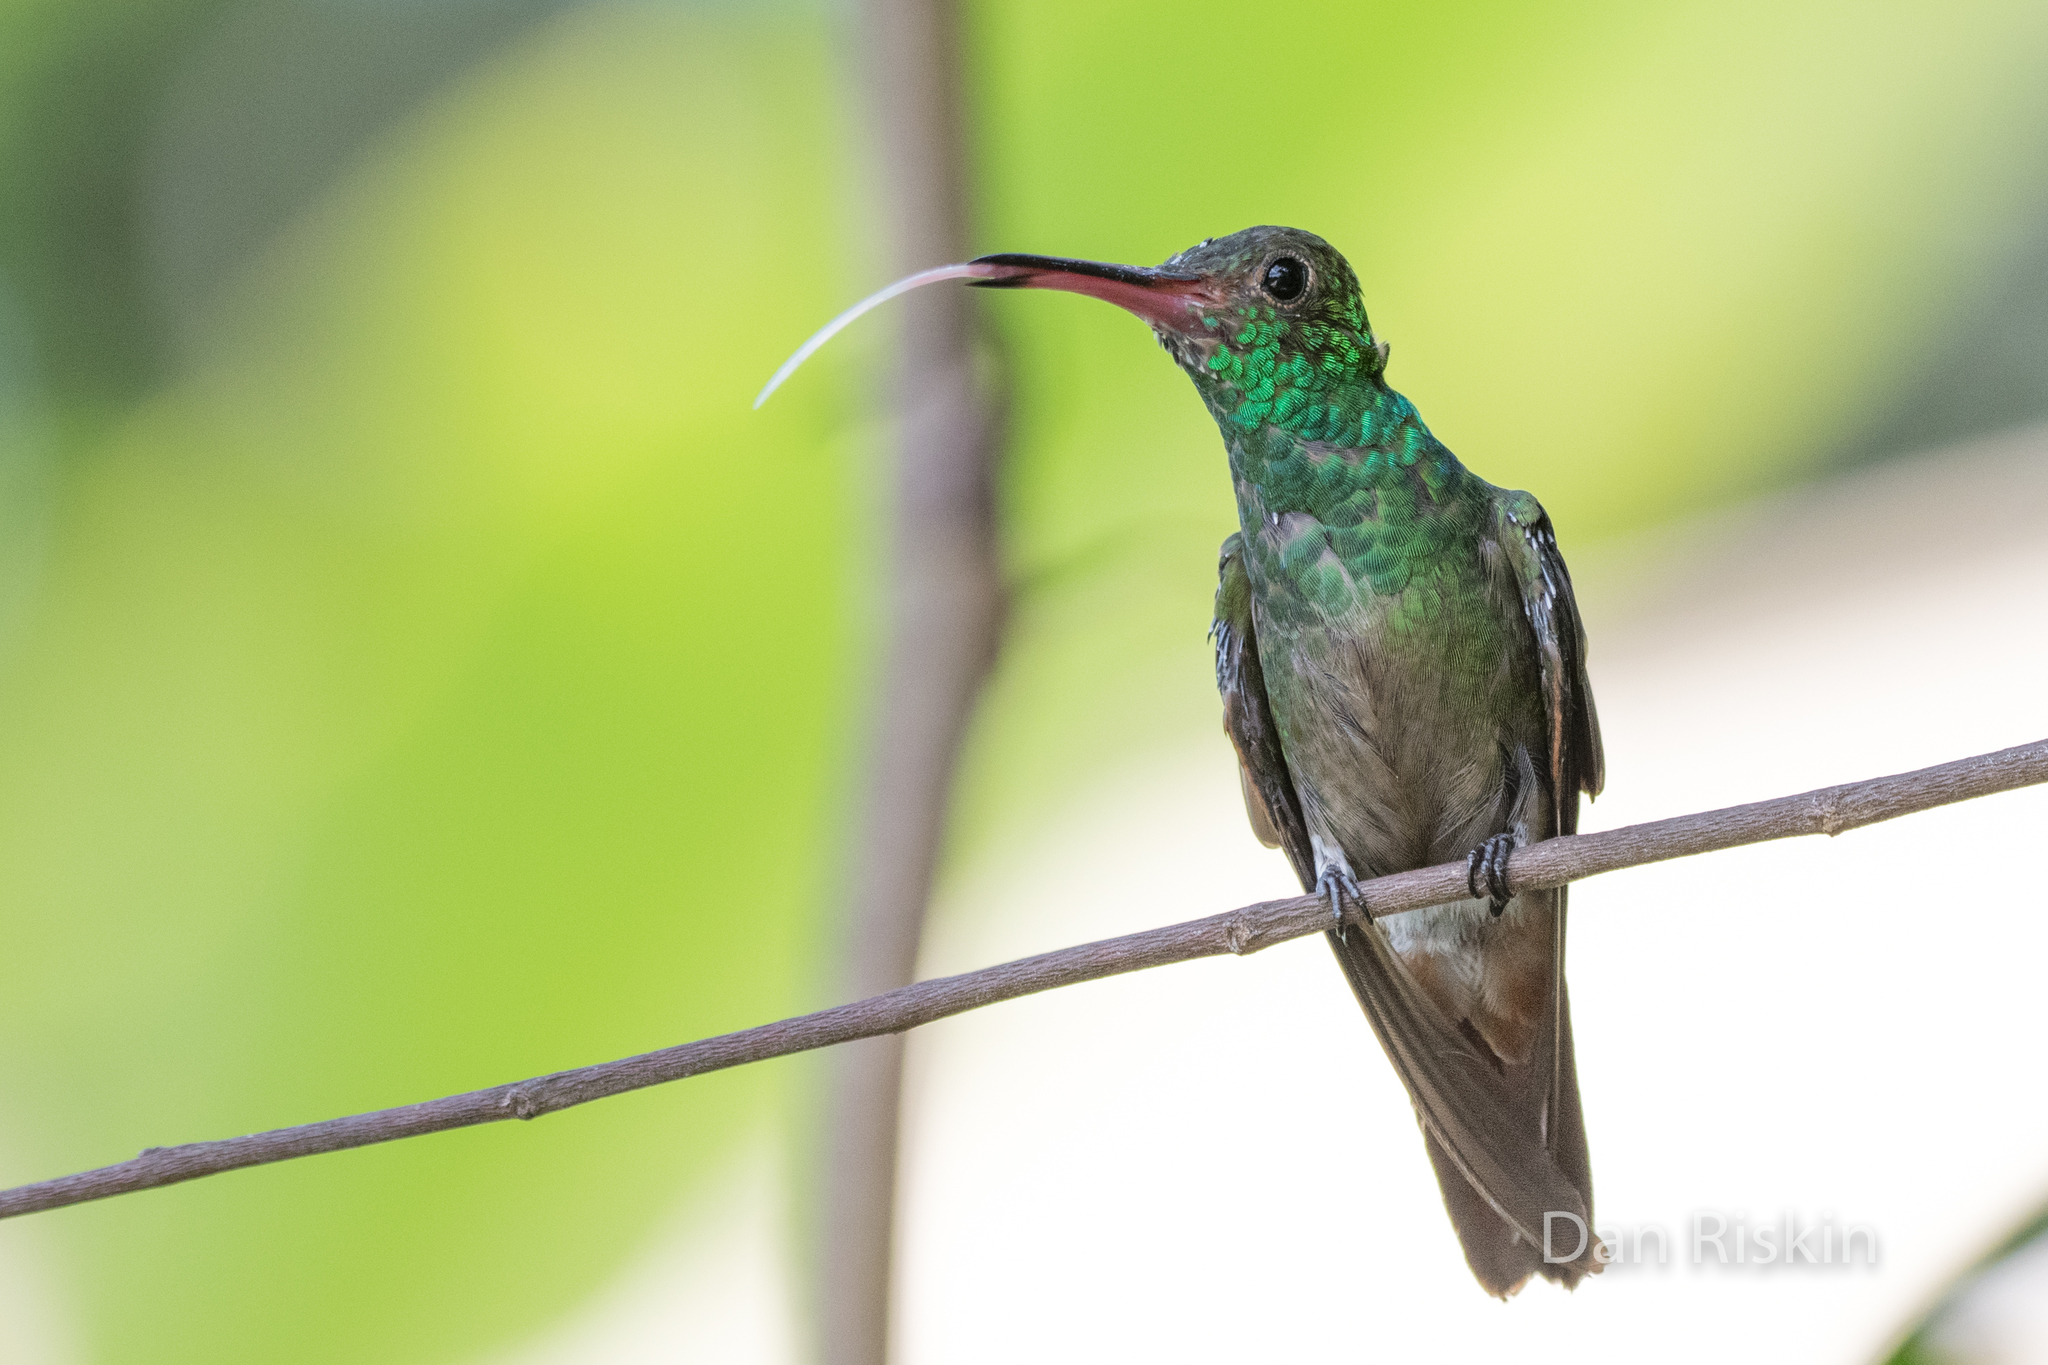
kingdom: Animalia
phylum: Chordata
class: Aves
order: Apodiformes
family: Trochilidae
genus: Amazilia
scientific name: Amazilia tzacatl
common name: Rufous-tailed hummingbird
